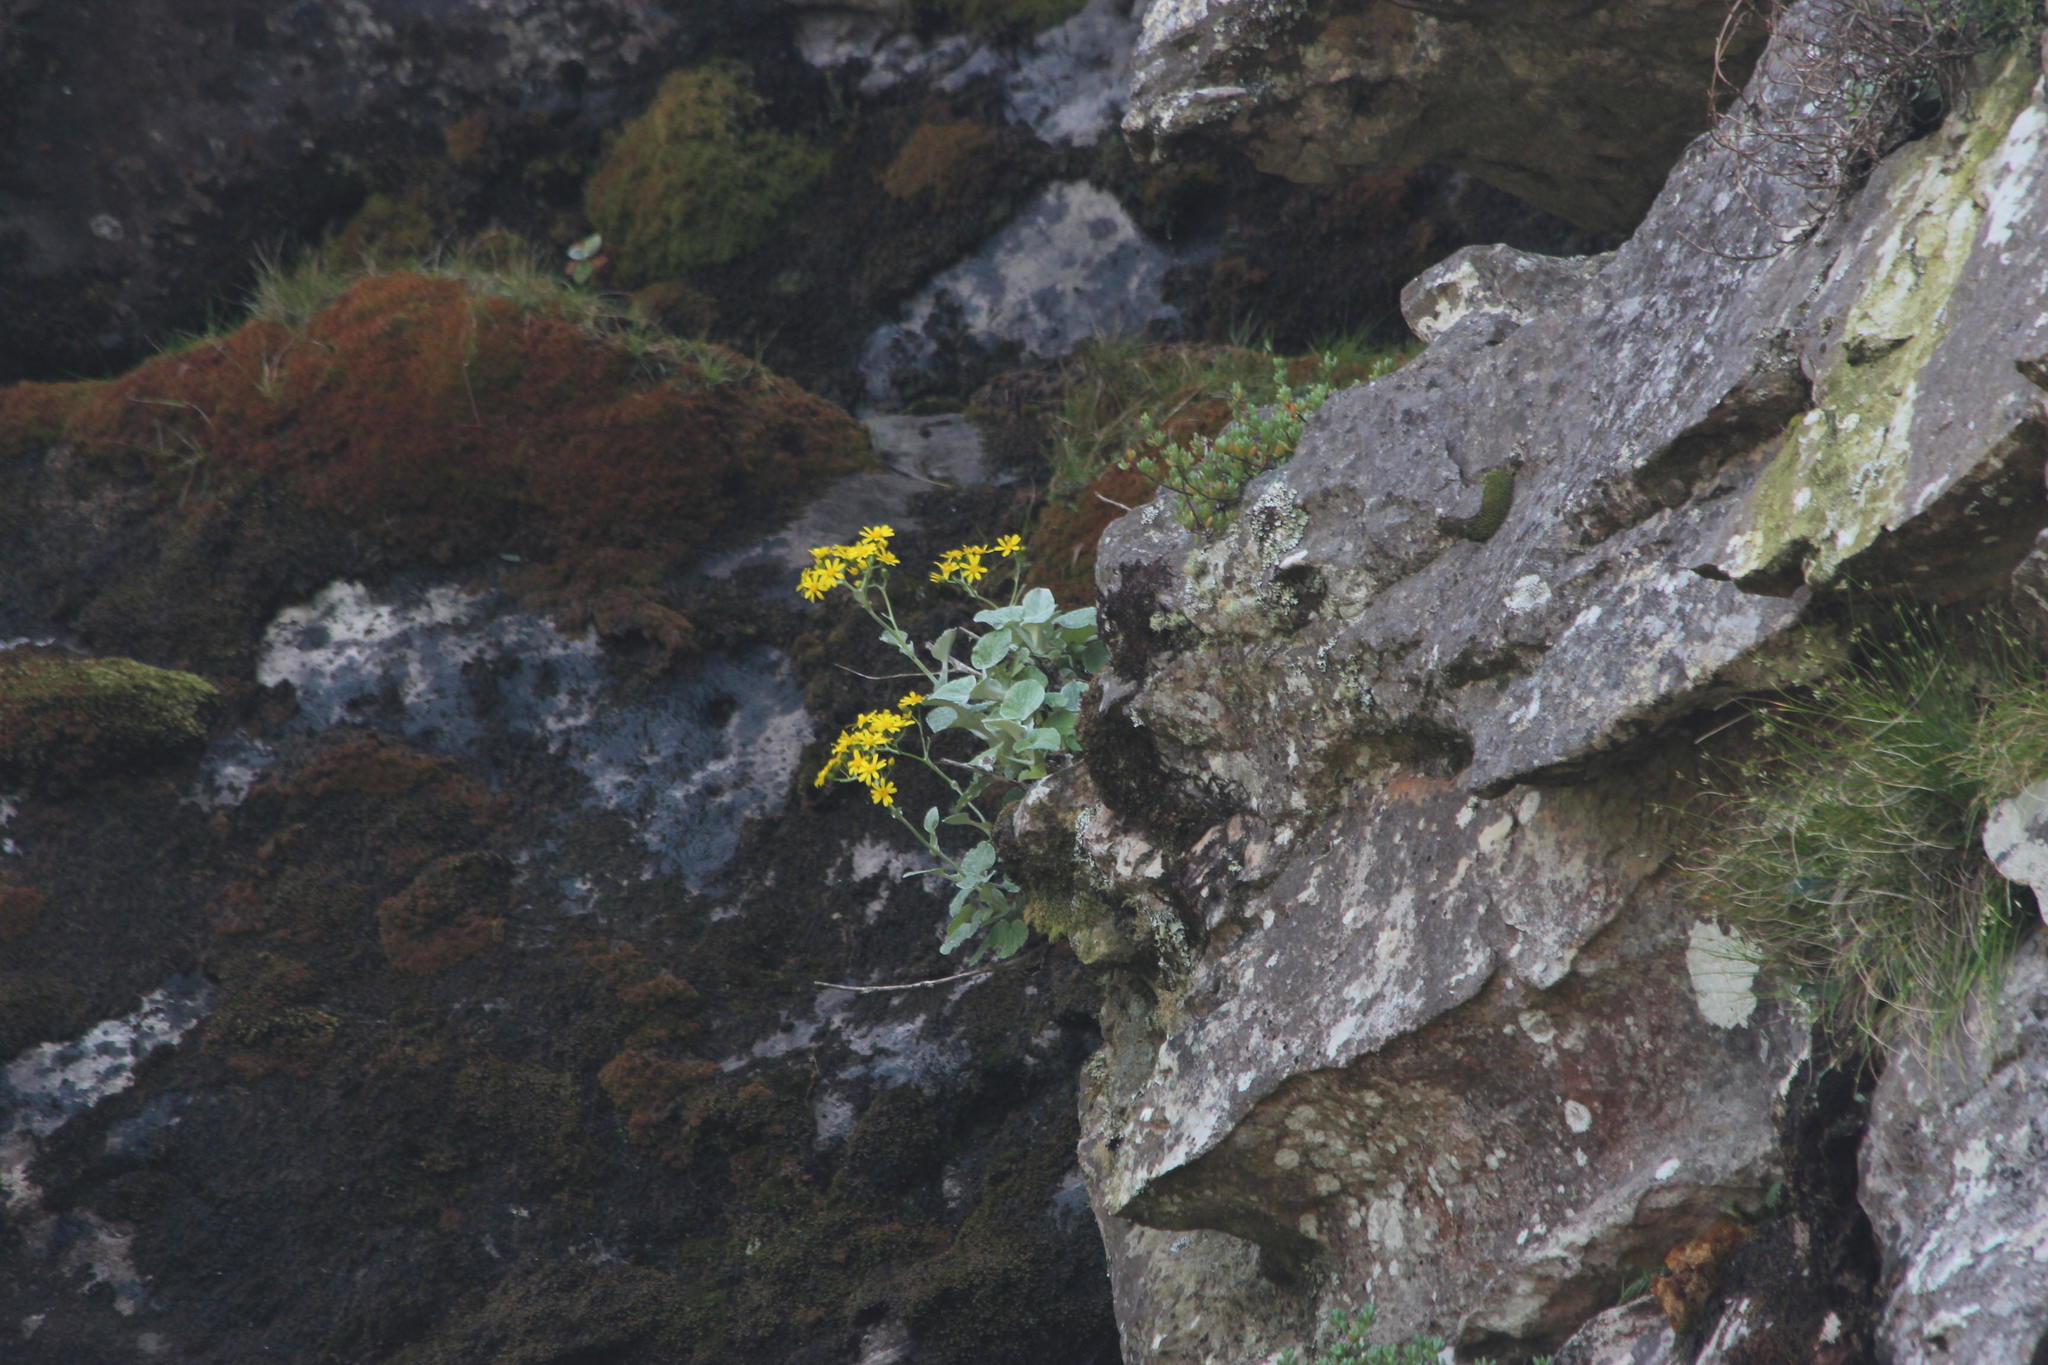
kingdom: Plantae
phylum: Tracheophyta
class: Magnoliopsida
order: Asterales
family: Asteraceae
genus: Senecio
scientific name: Senecio verbascifolius
